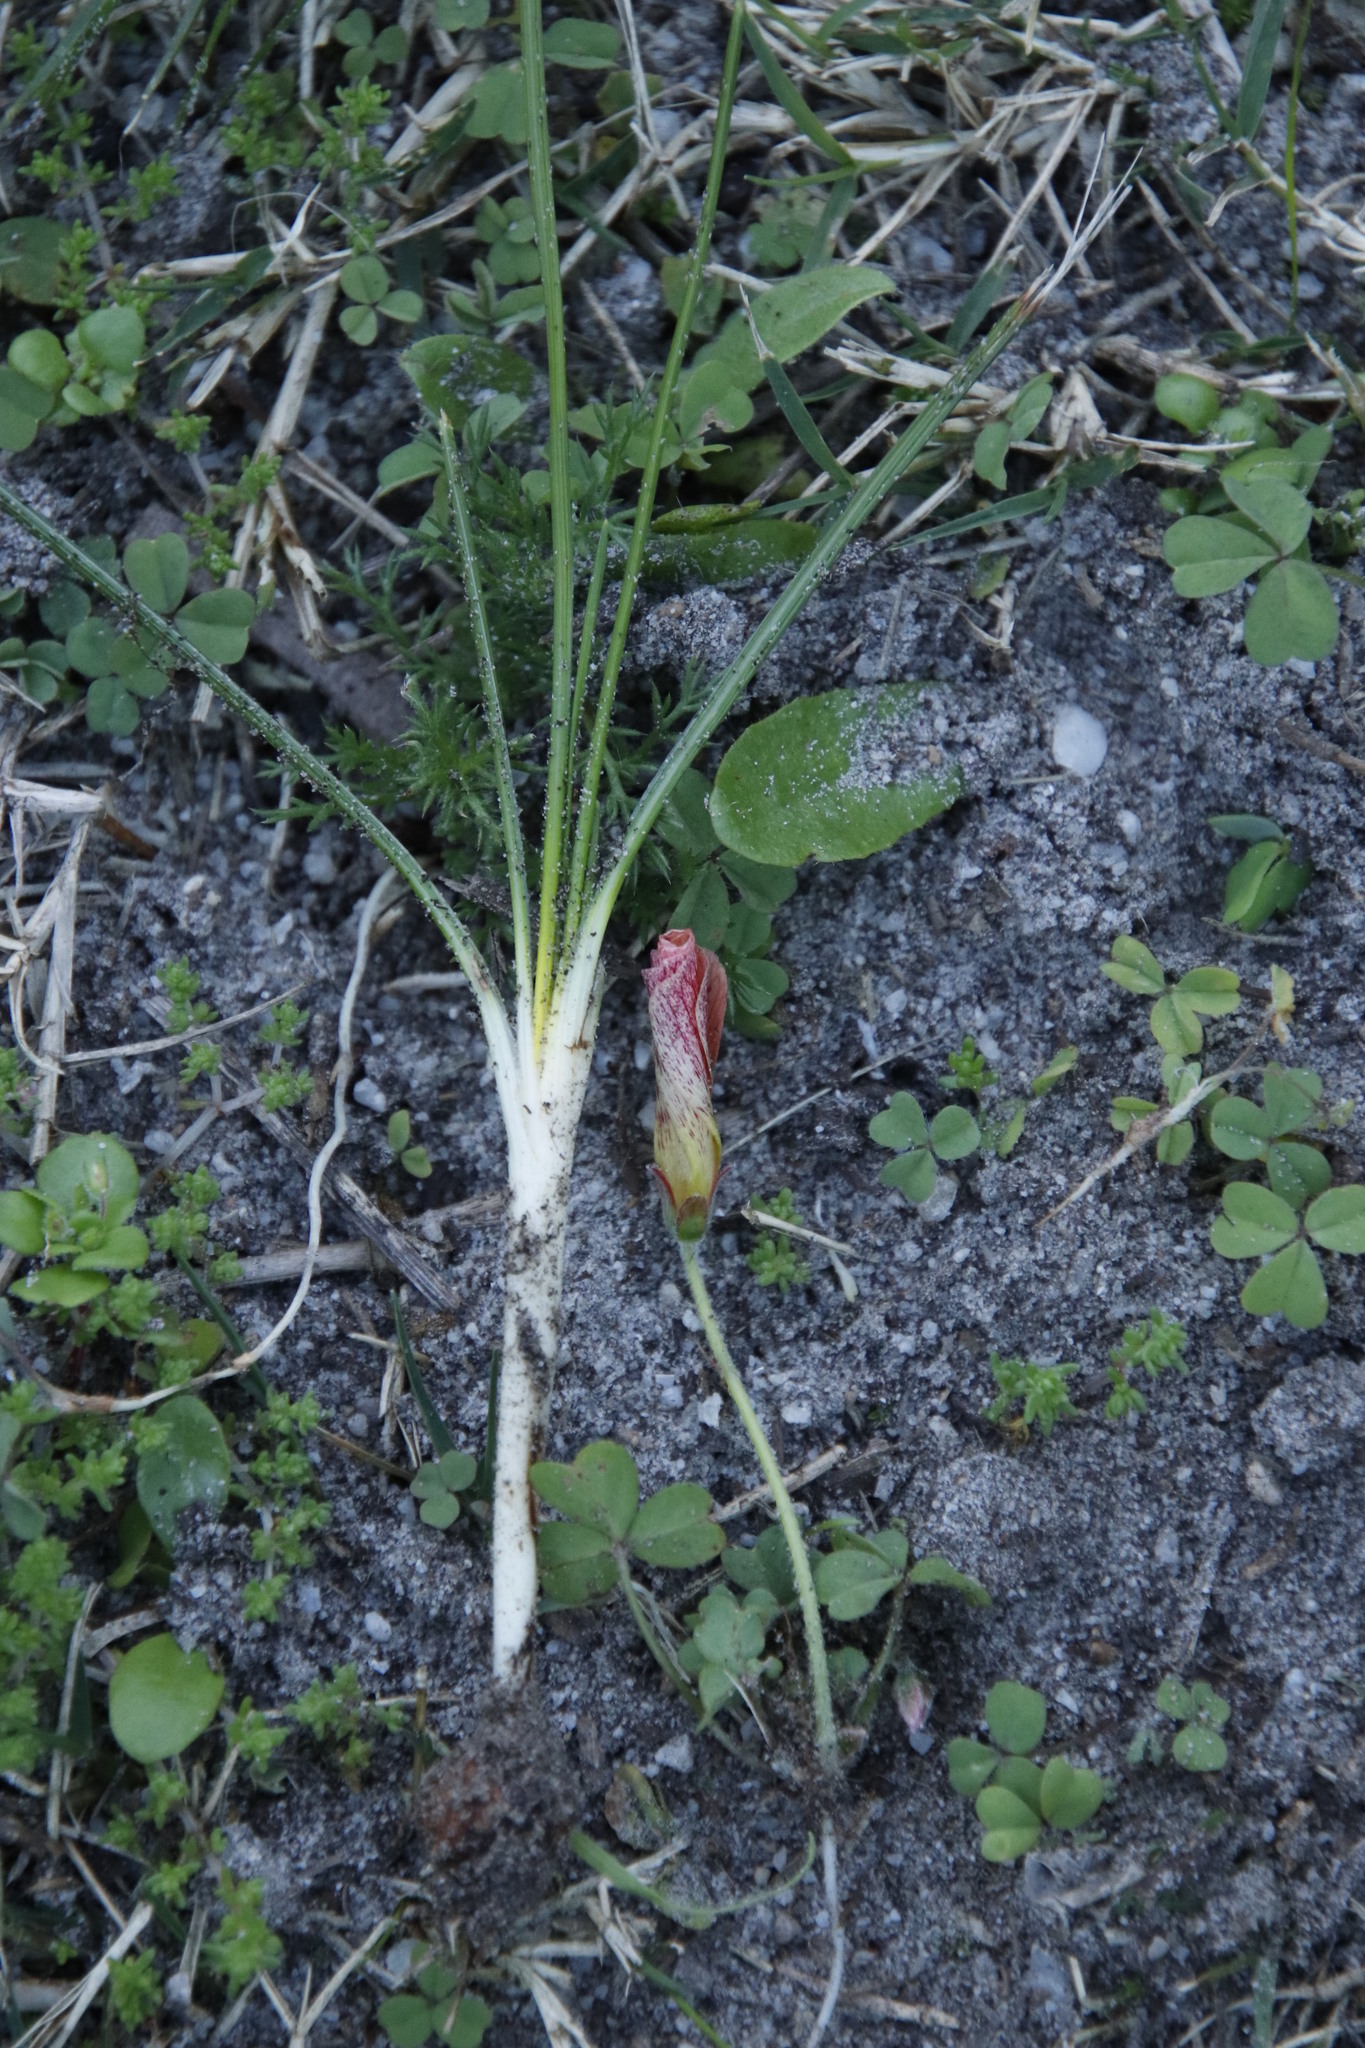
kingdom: Plantae
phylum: Tracheophyta
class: Liliopsida
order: Asparagales
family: Iridaceae
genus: Romulea
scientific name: Romulea rosea
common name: Oniongrass
